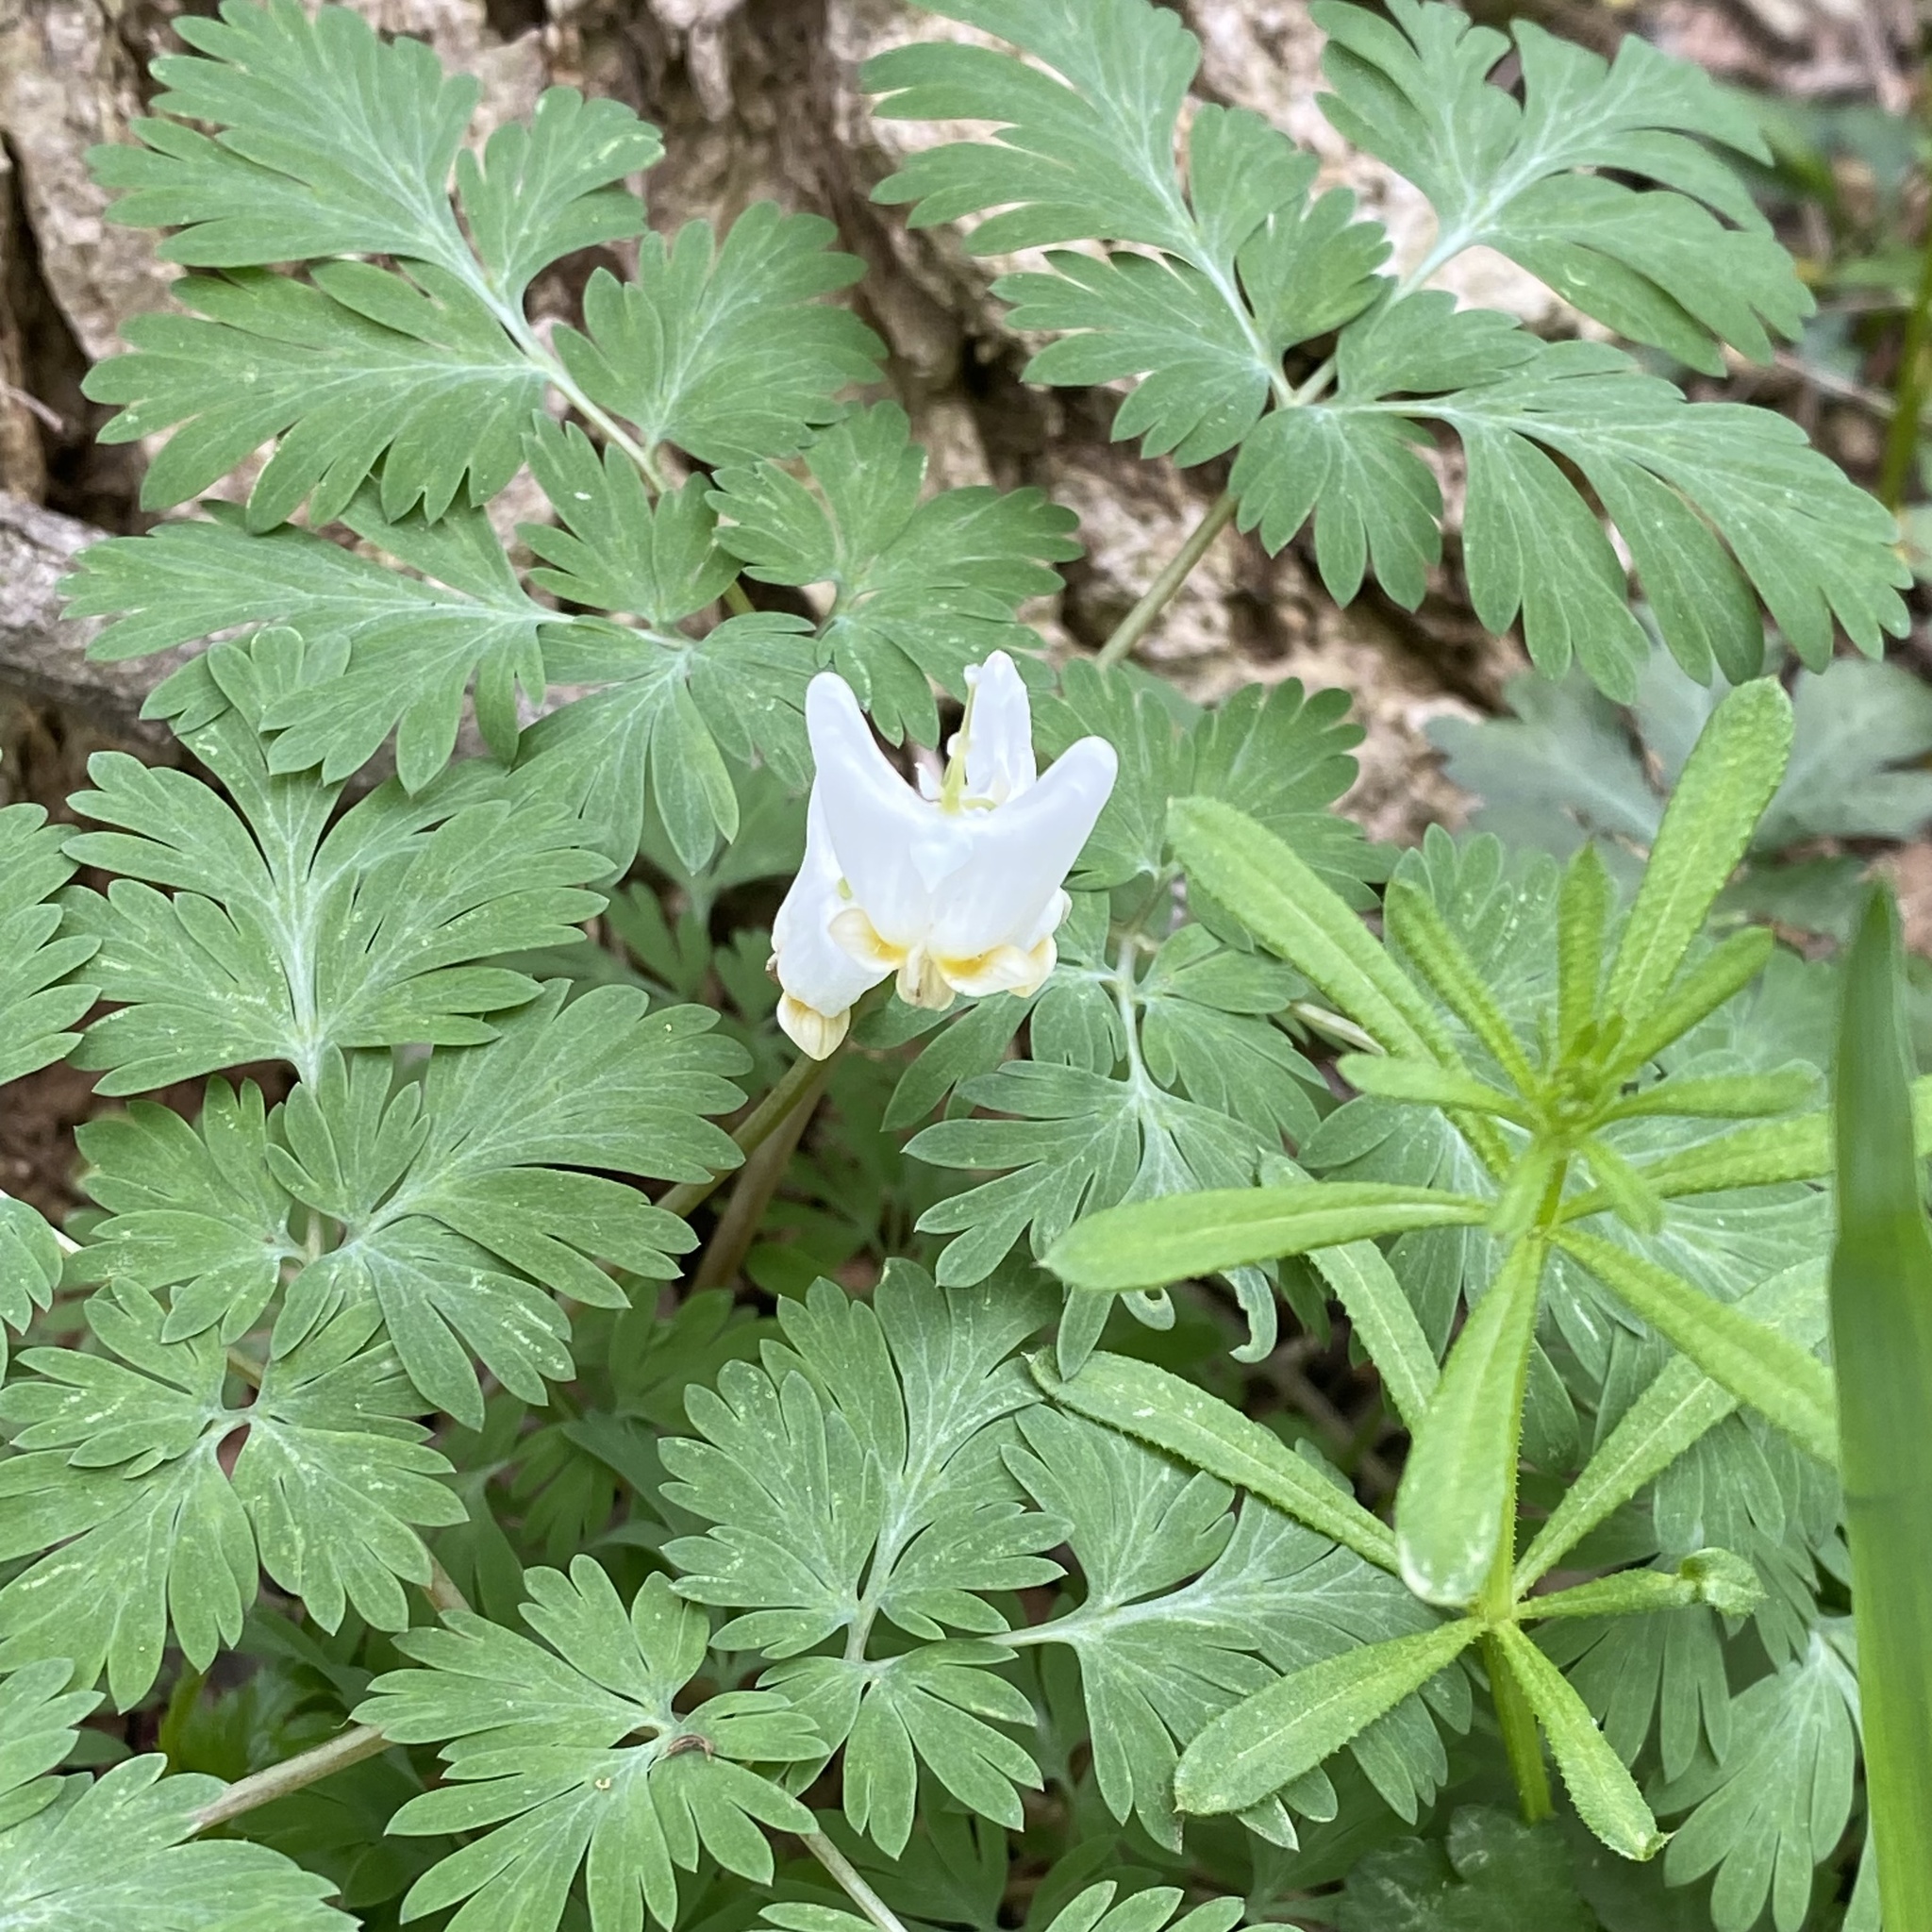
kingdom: Plantae
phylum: Tracheophyta
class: Magnoliopsida
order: Ranunculales
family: Papaveraceae
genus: Dicentra
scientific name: Dicentra cucullaria
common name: Dutchman's breeches
